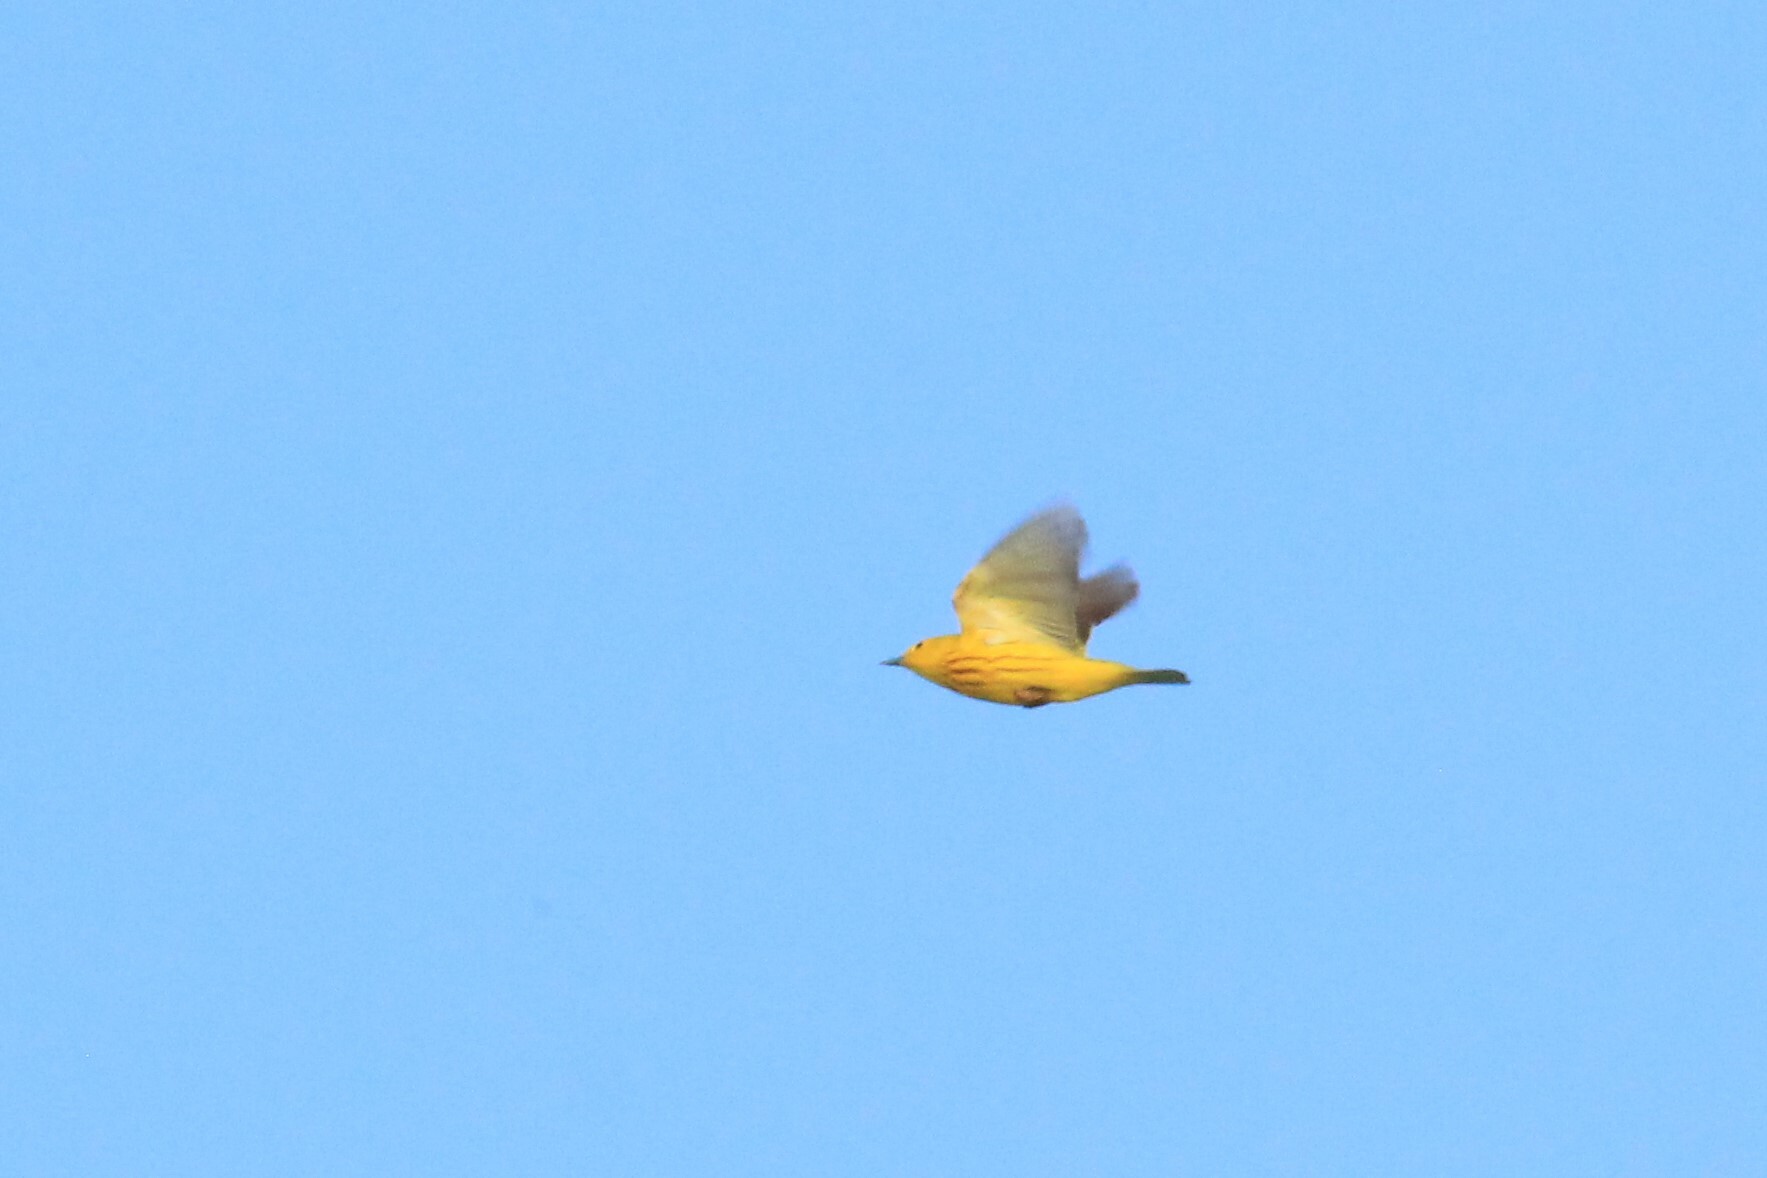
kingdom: Animalia
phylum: Chordata
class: Aves
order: Passeriformes
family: Parulidae
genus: Setophaga
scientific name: Setophaga petechia
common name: Yellow warbler
